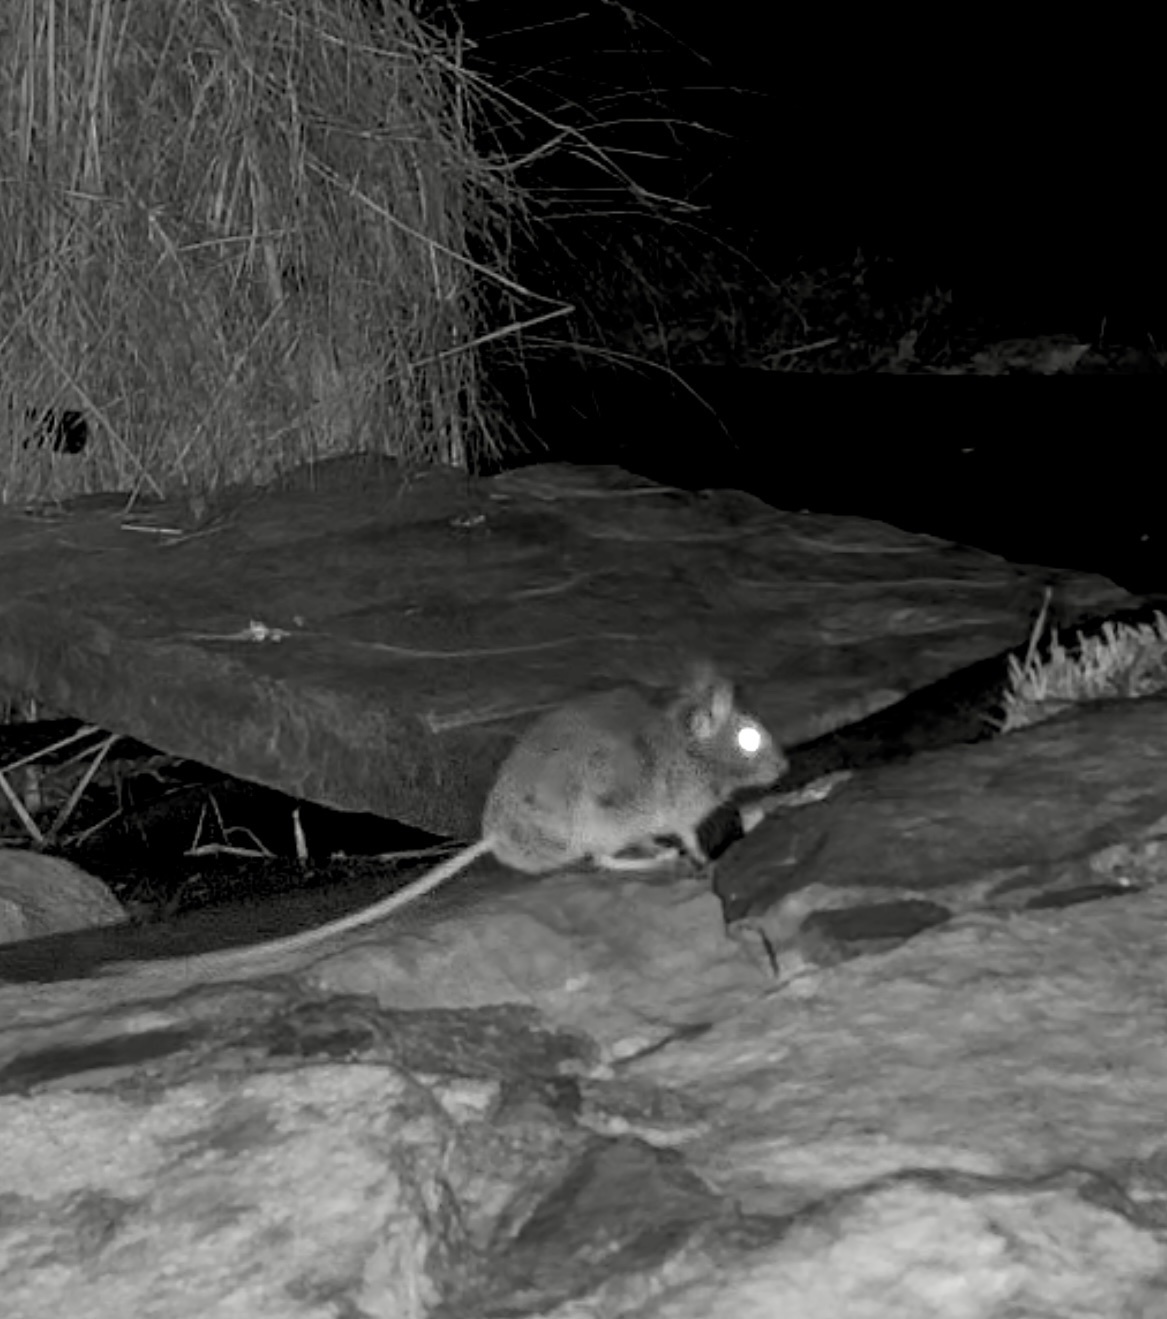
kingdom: Animalia
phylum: Chordata
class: Mammalia
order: Rodentia
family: Muridae
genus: Apodemus
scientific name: Apodemus sylvaticus
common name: Wood mouse
